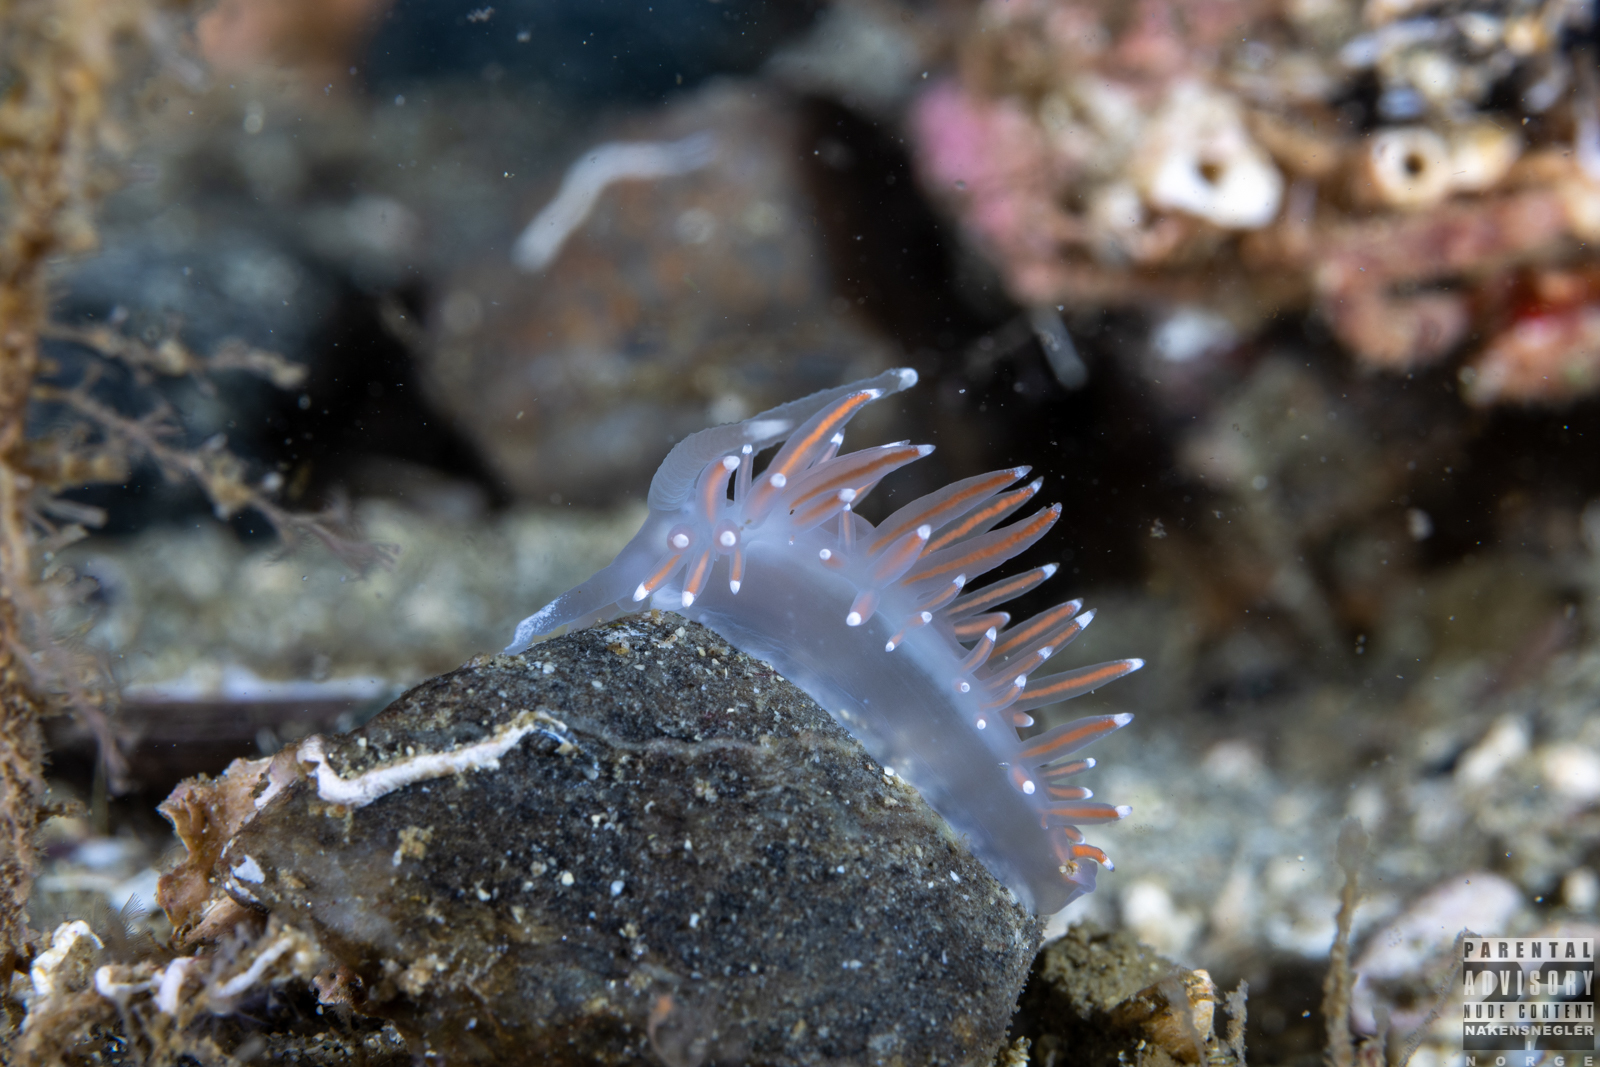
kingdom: Animalia
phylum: Mollusca
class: Gastropoda
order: Nudibranchia
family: Coryphellidae
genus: Coryphella
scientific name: Coryphella browni
